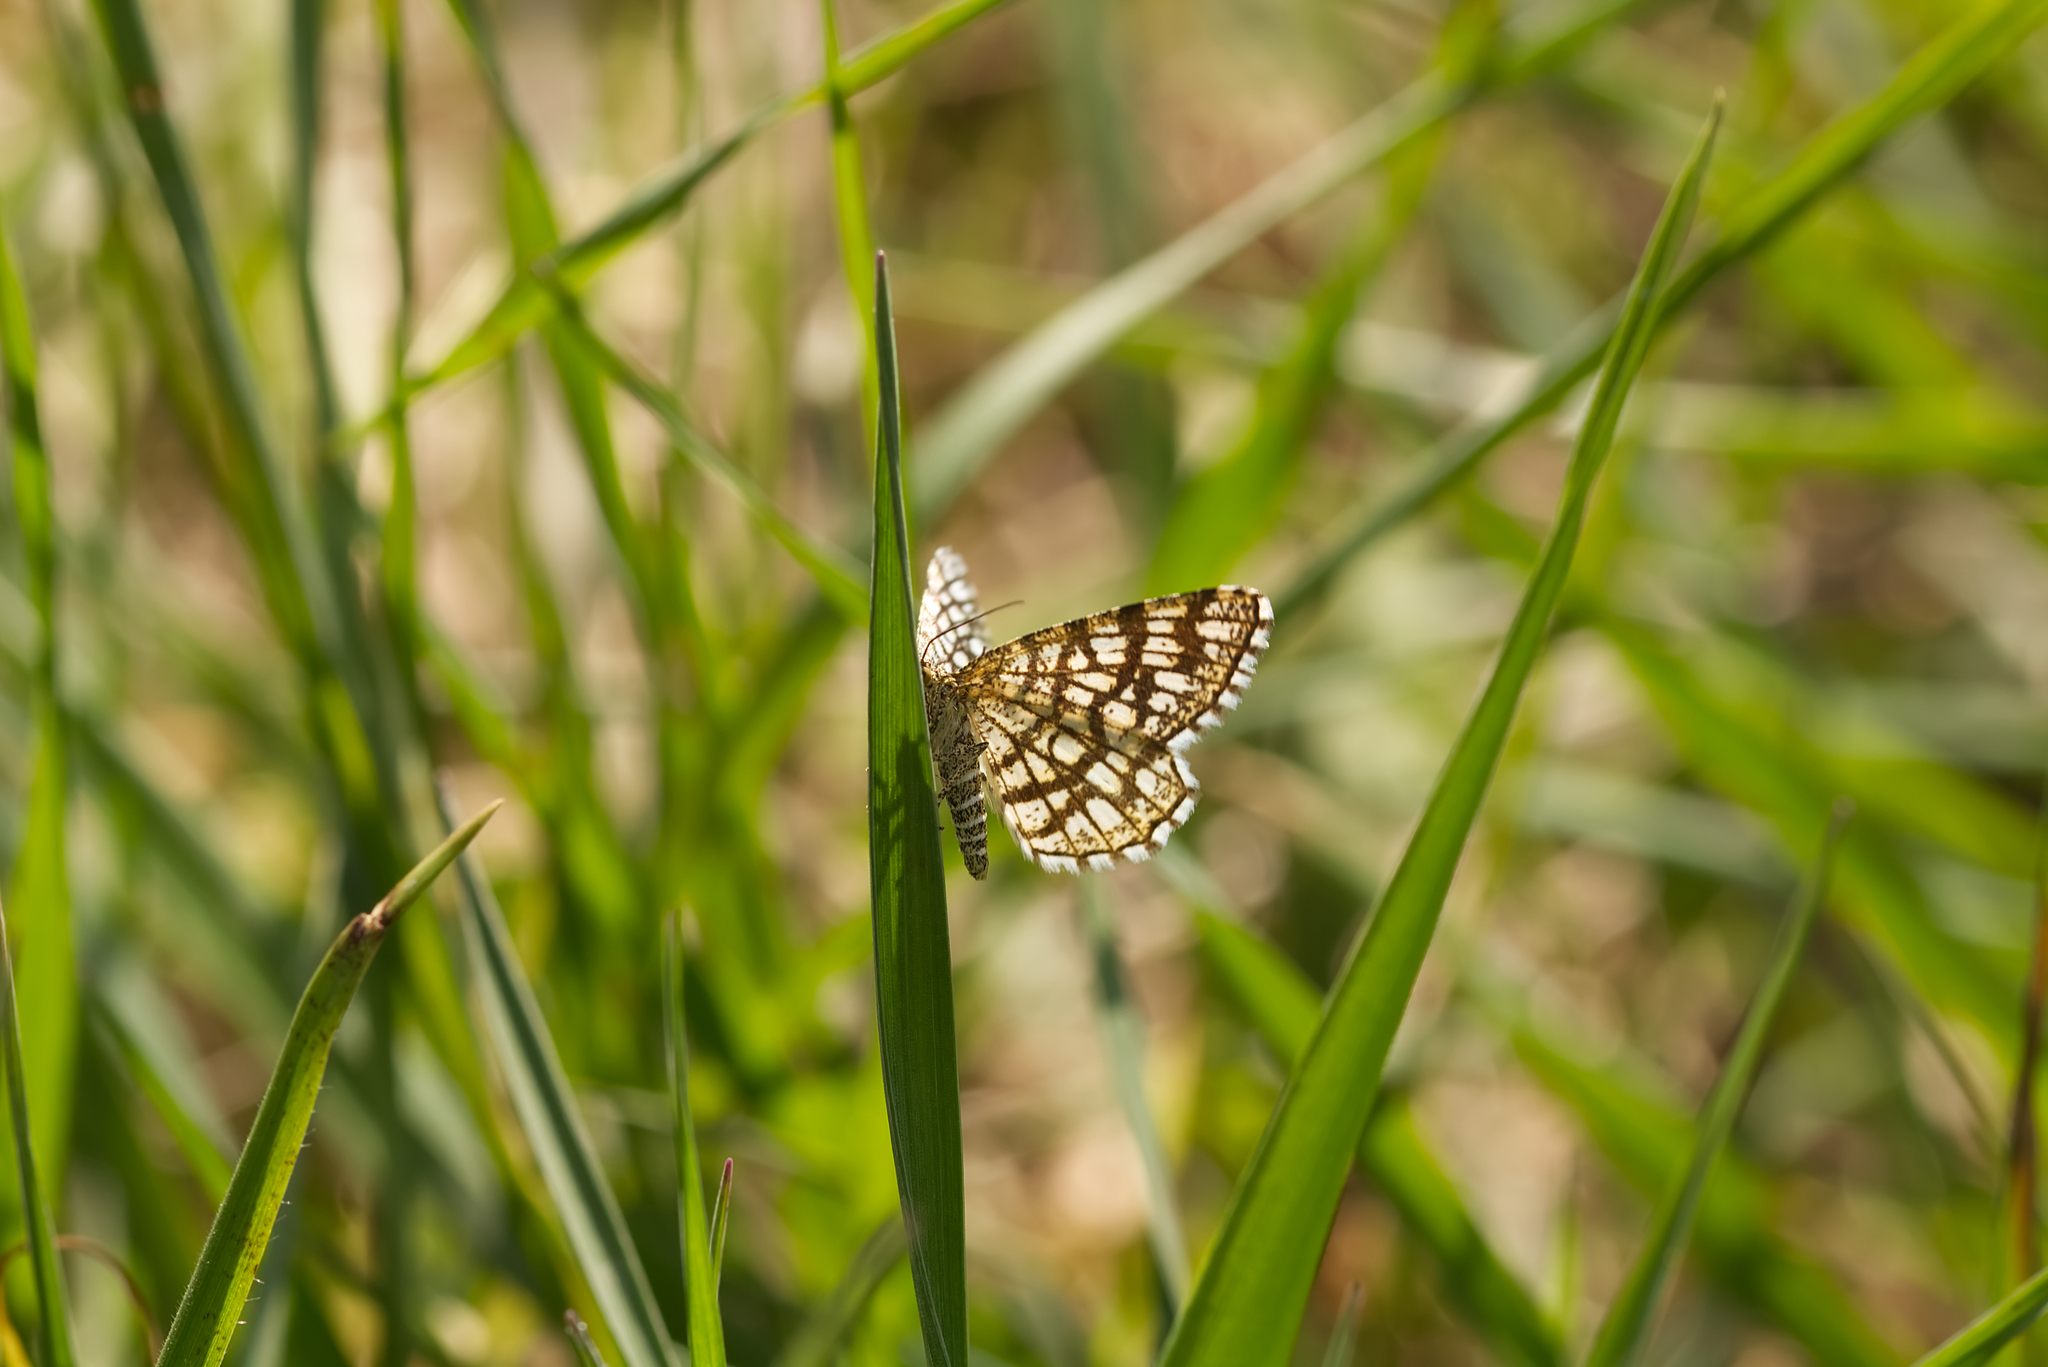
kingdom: Animalia
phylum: Arthropoda
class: Insecta
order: Lepidoptera
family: Geometridae
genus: Chiasmia
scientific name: Chiasmia clathrata
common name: Latticed heath
